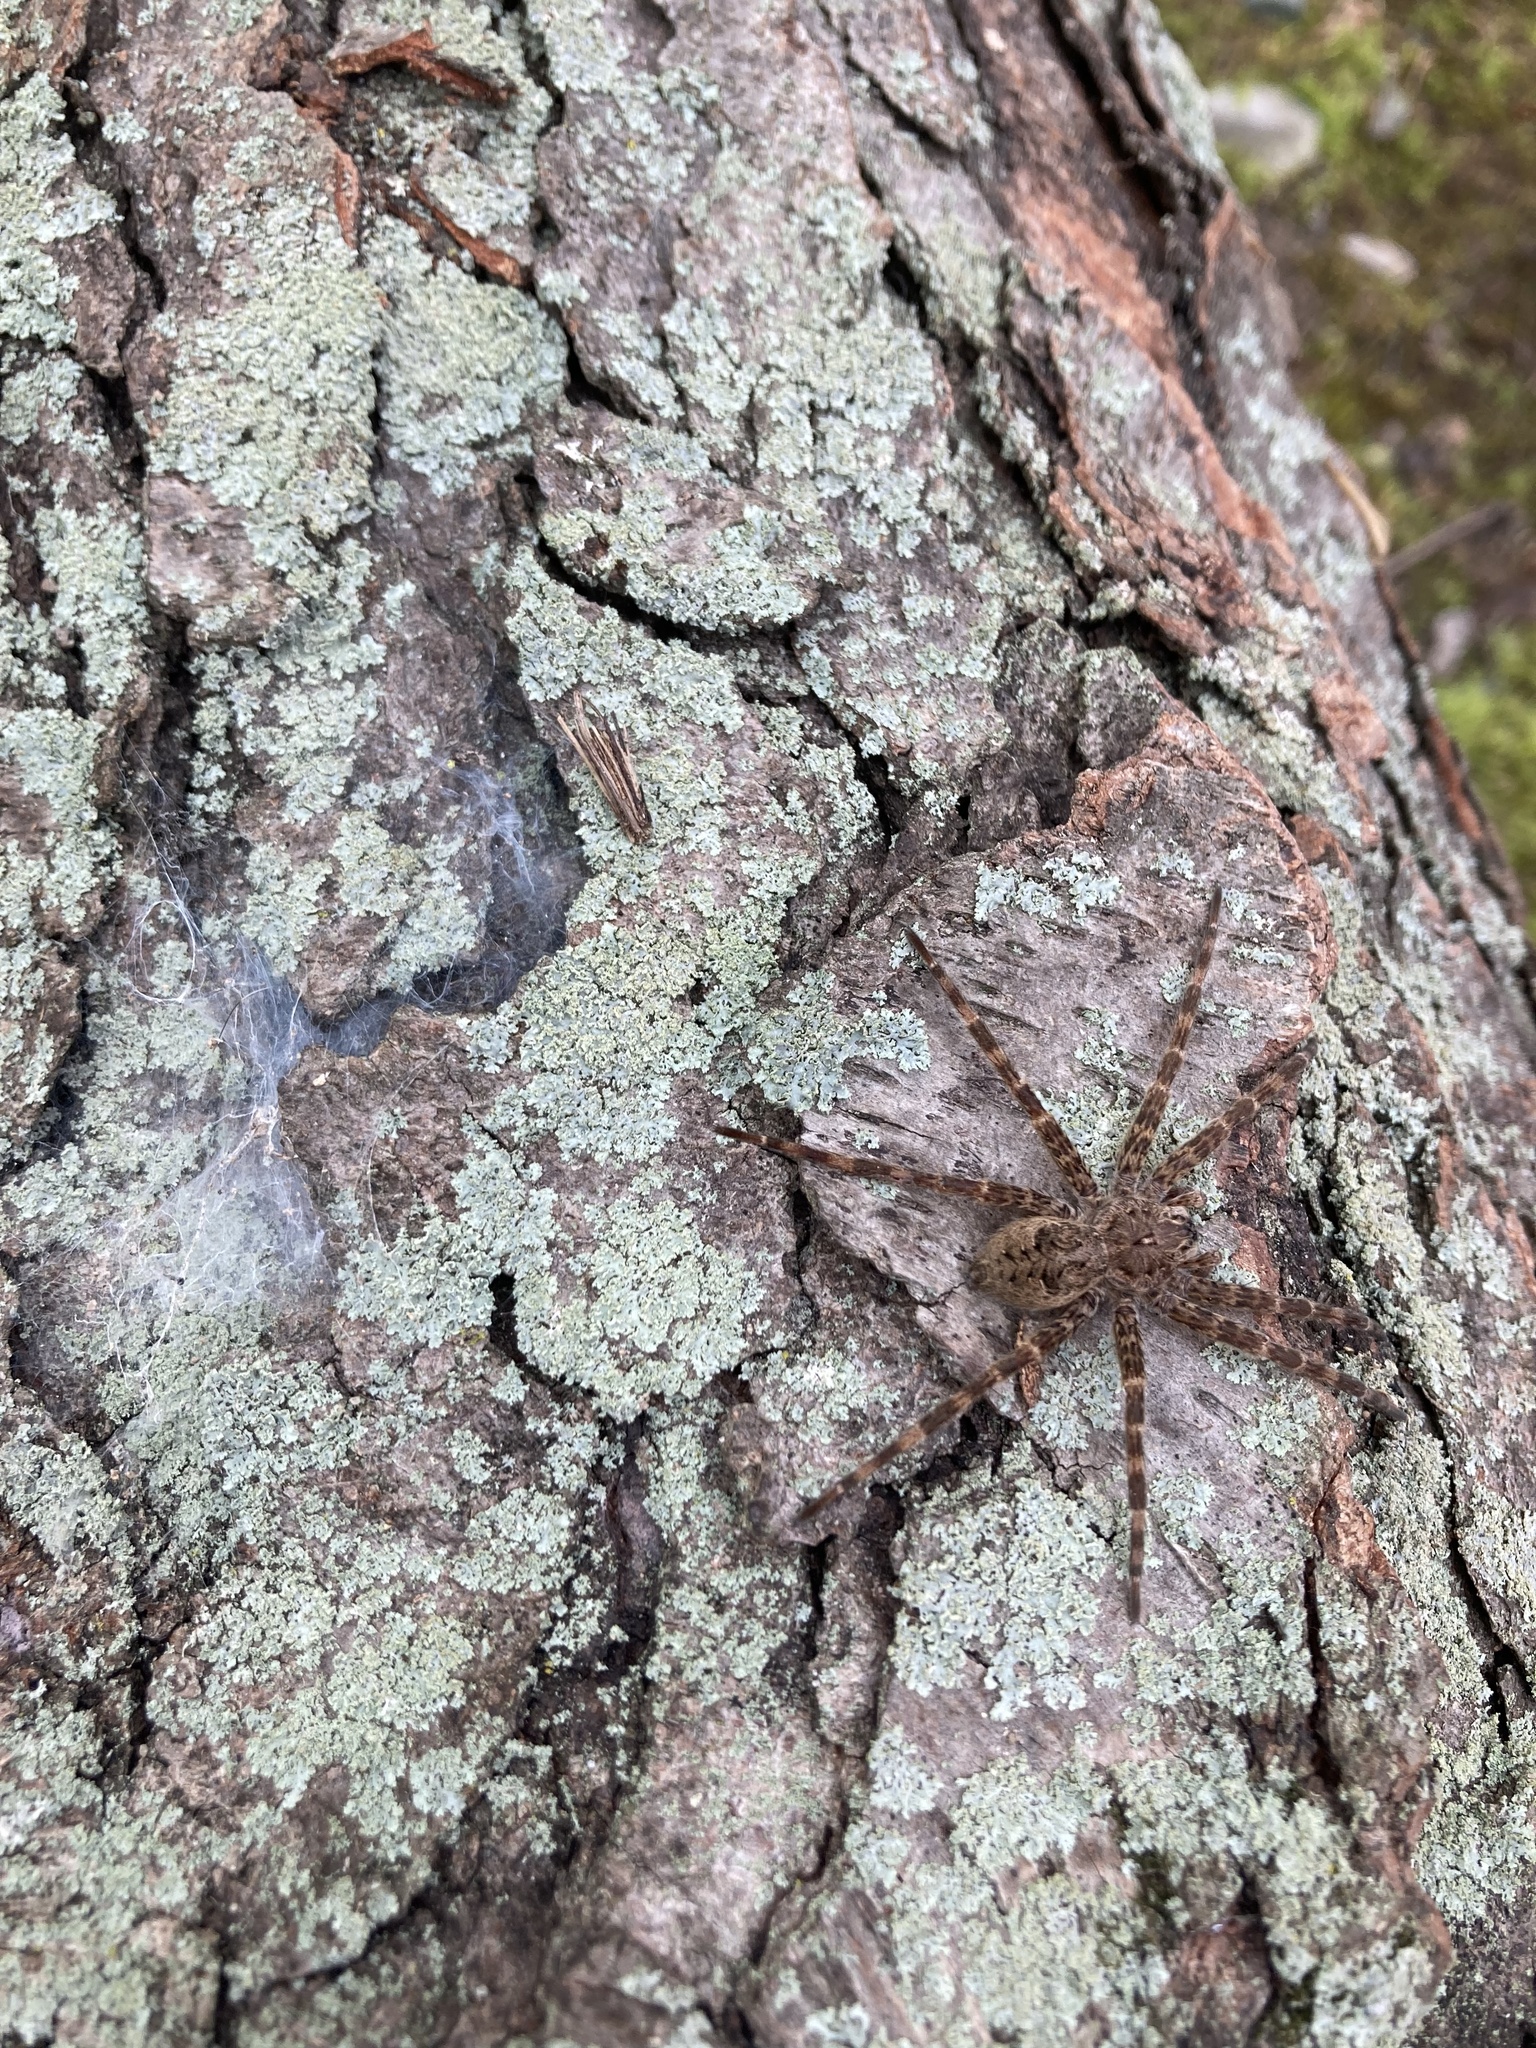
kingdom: Animalia
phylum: Arthropoda
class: Arachnida
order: Araneae
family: Pisauridae
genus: Dolomedes
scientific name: Dolomedes tenebrosus
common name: Dark fishing spider
